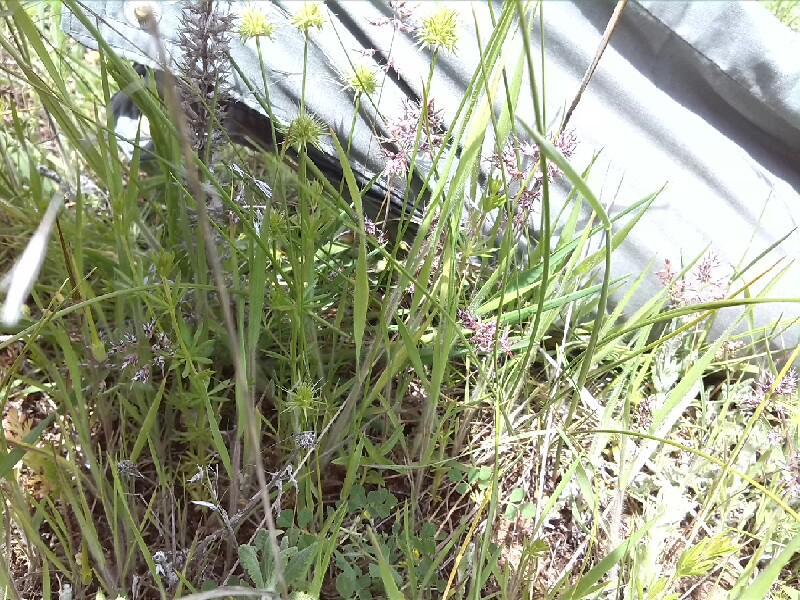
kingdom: Plantae
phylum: Tracheophyta
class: Liliopsida
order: Poales
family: Poaceae
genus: Echinaria
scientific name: Echinaria capitata
